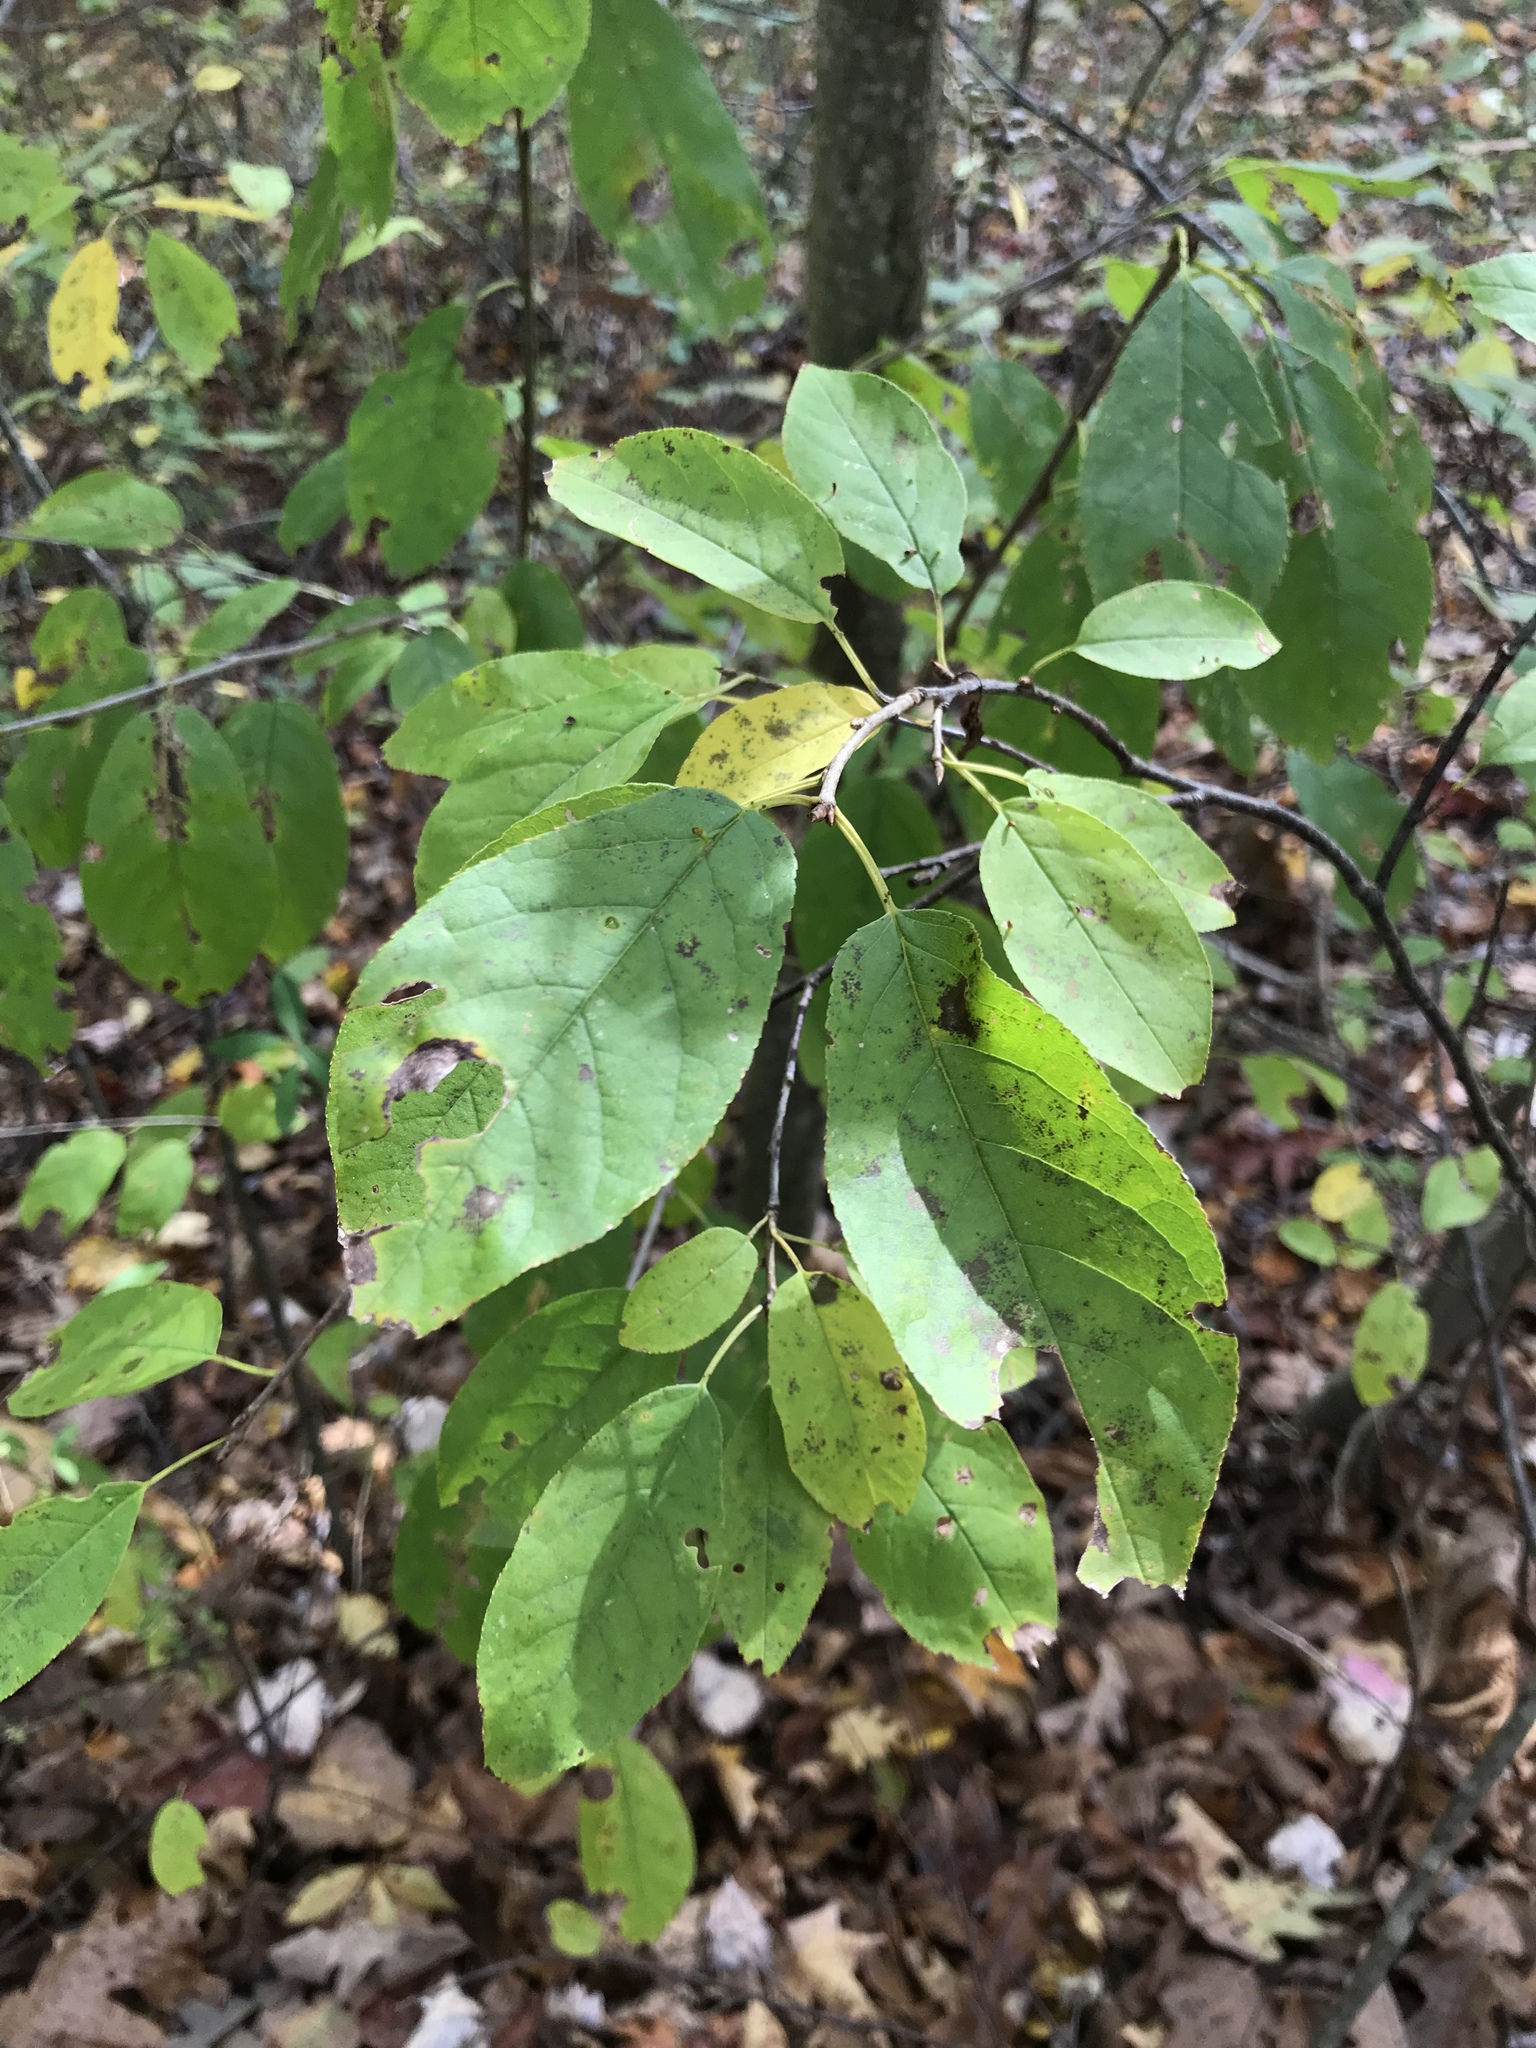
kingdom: Plantae
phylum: Tracheophyta
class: Magnoliopsida
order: Rosales
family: Rosaceae
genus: Prunus
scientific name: Prunus virginiana
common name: Chokecherry
